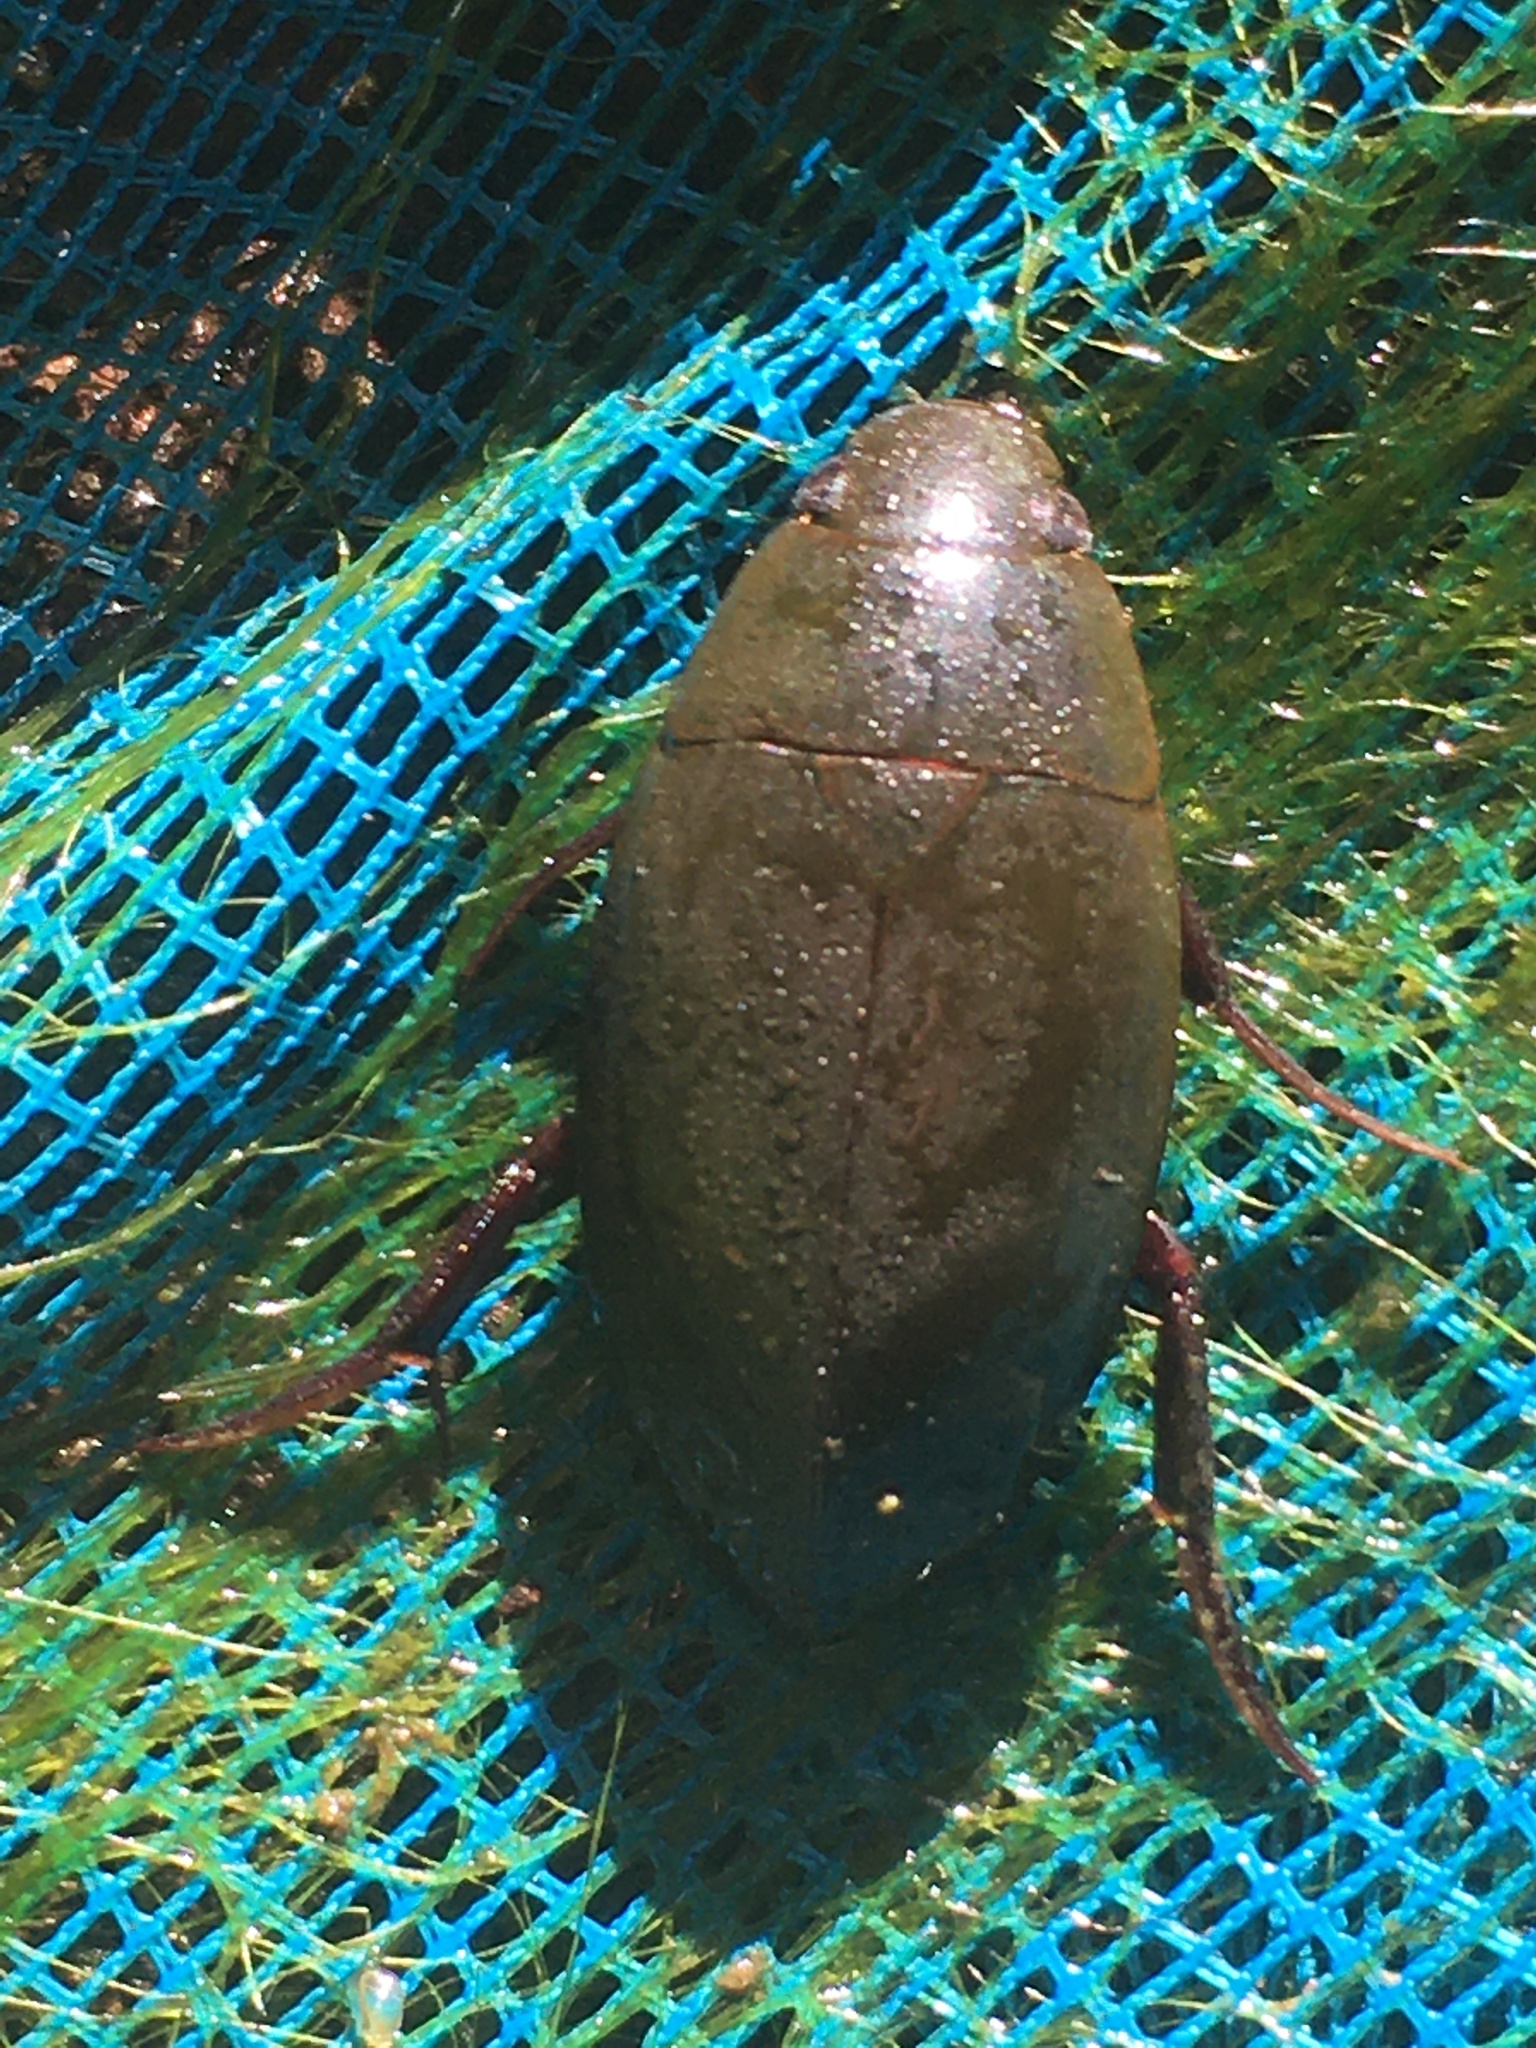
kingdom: Animalia
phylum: Arthropoda
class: Insecta
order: Coleoptera
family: Hydrophilidae
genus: Hydrophilus
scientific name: Hydrophilus triangularis
